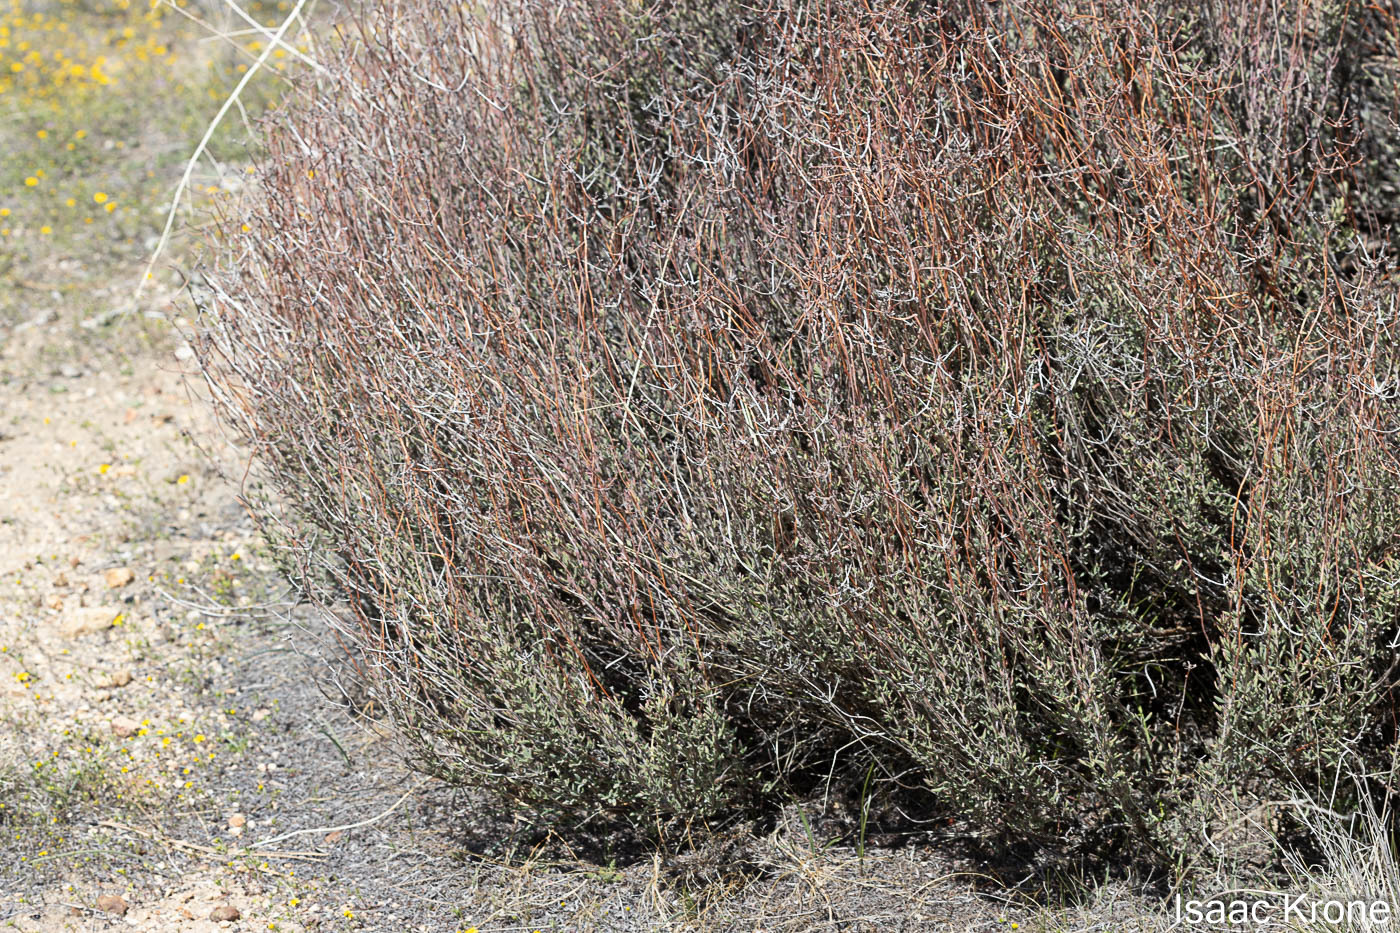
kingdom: Plantae
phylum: Tracheophyta
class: Magnoliopsida
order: Caryophyllales
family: Polygonaceae
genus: Eriogonum
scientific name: Eriogonum fasciculatum
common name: California wild buckwheat
